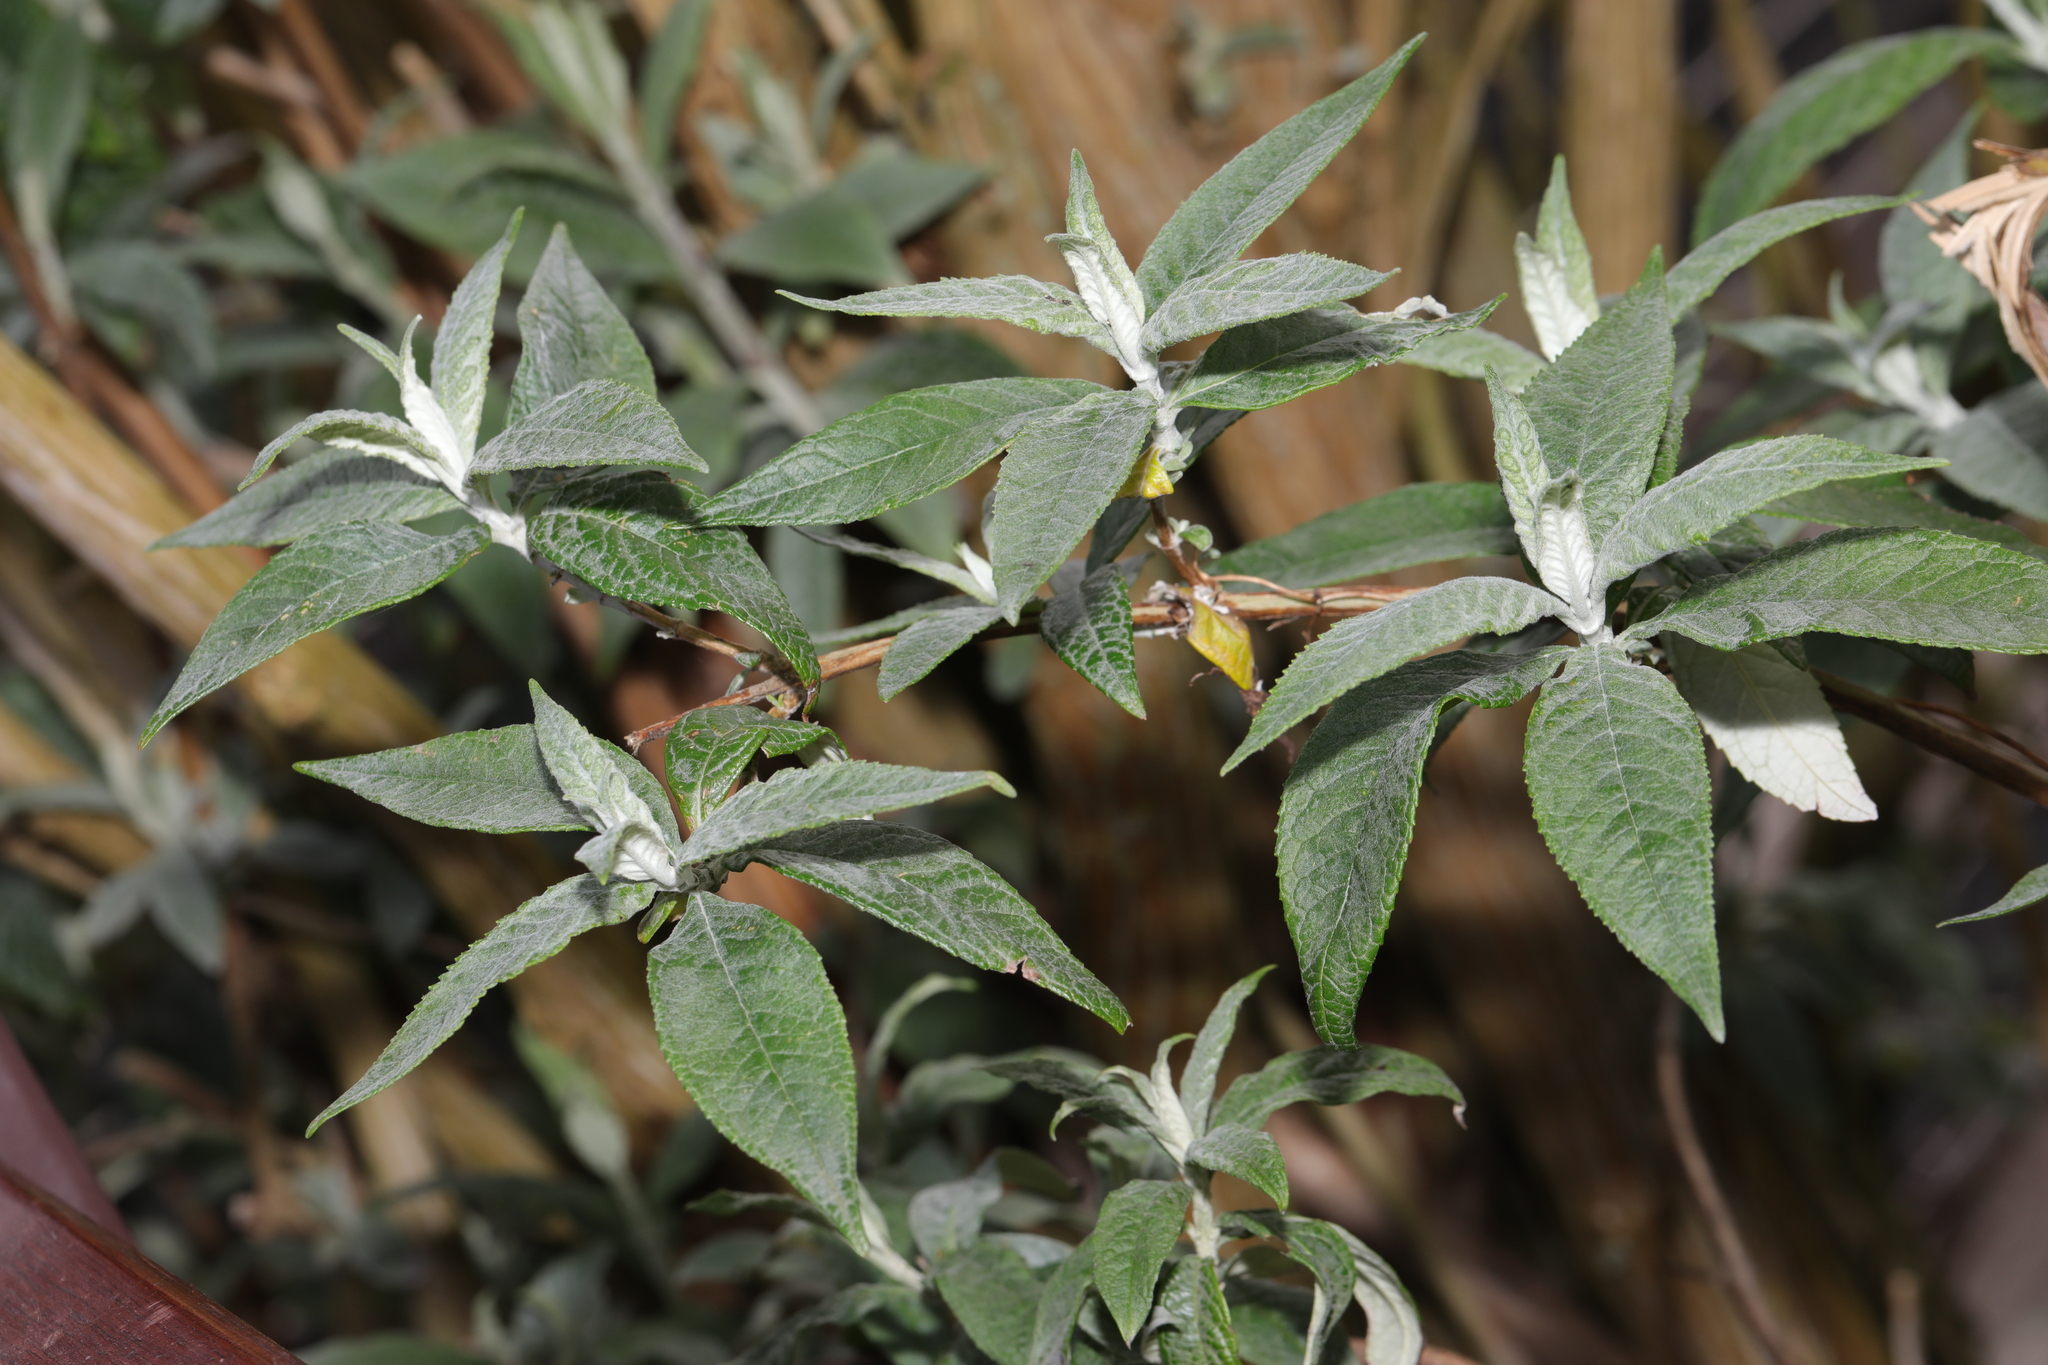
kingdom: Plantae
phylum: Tracheophyta
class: Magnoliopsida
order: Lamiales
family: Scrophulariaceae
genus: Buddleja
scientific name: Buddleja davidii
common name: Butterfly-bush
